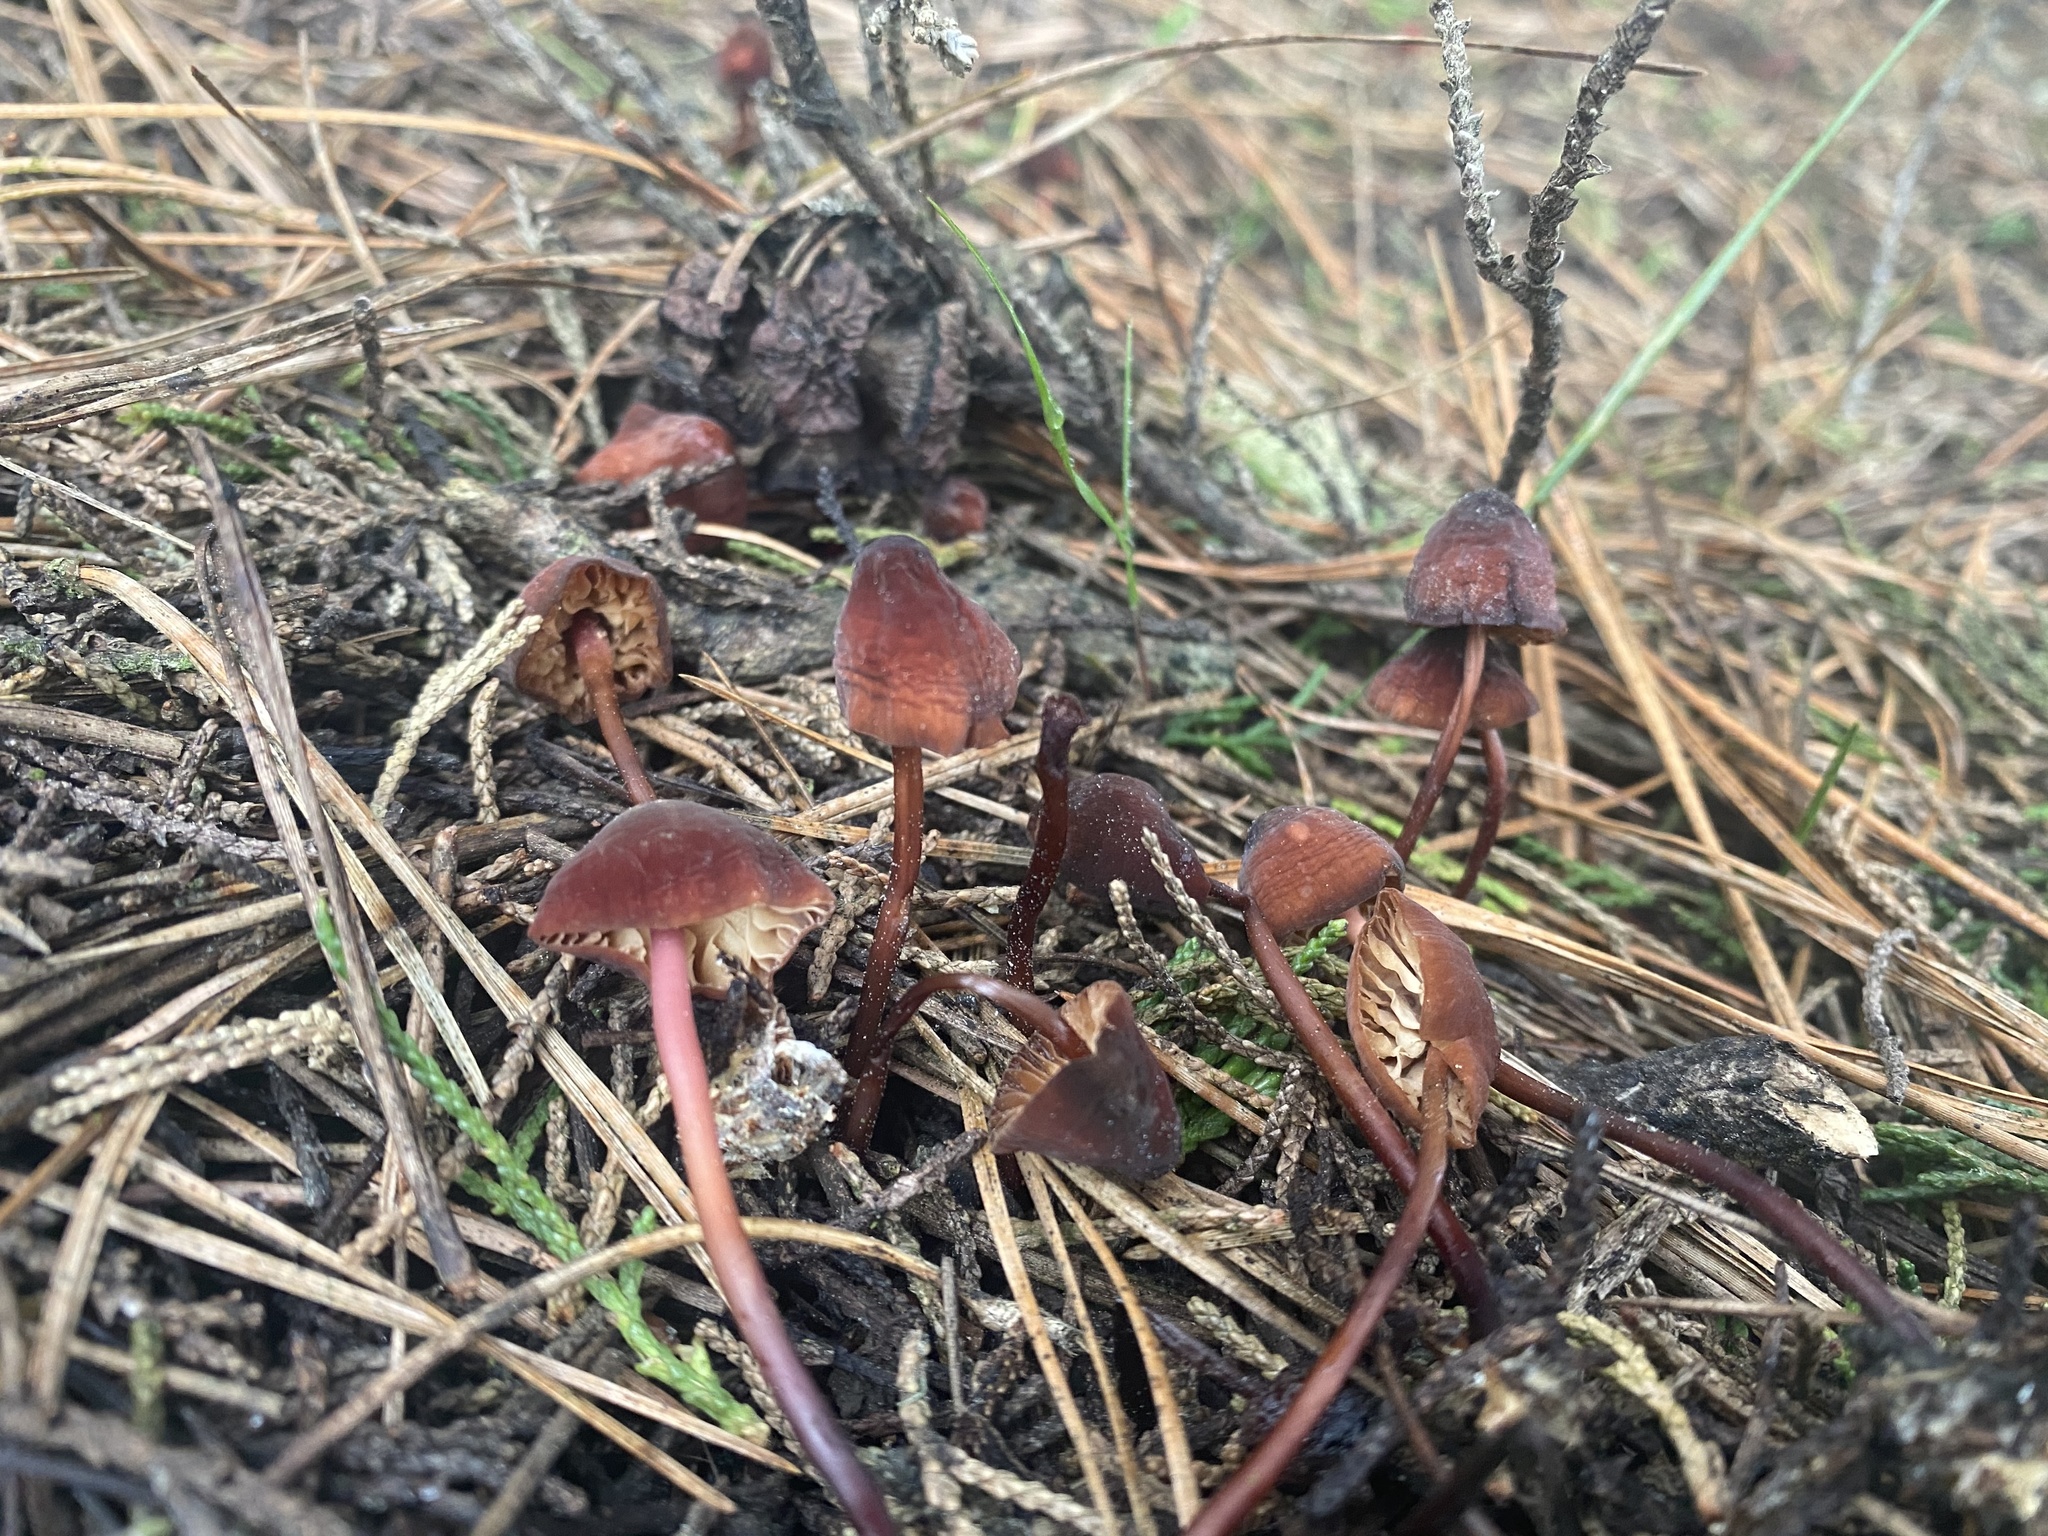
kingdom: Fungi
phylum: Basidiomycota
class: Agaricomycetes
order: Agaricales
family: Marasmiaceae
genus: Marasmius
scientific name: Marasmius plicatulus
